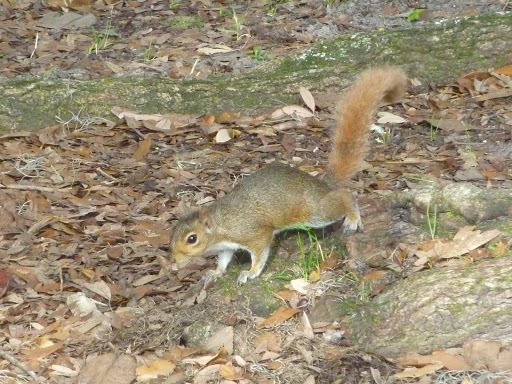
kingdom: Animalia
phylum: Chordata
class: Mammalia
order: Rodentia
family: Sciuridae
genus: Sciurus
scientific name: Sciurus carolinensis
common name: Eastern gray squirrel
